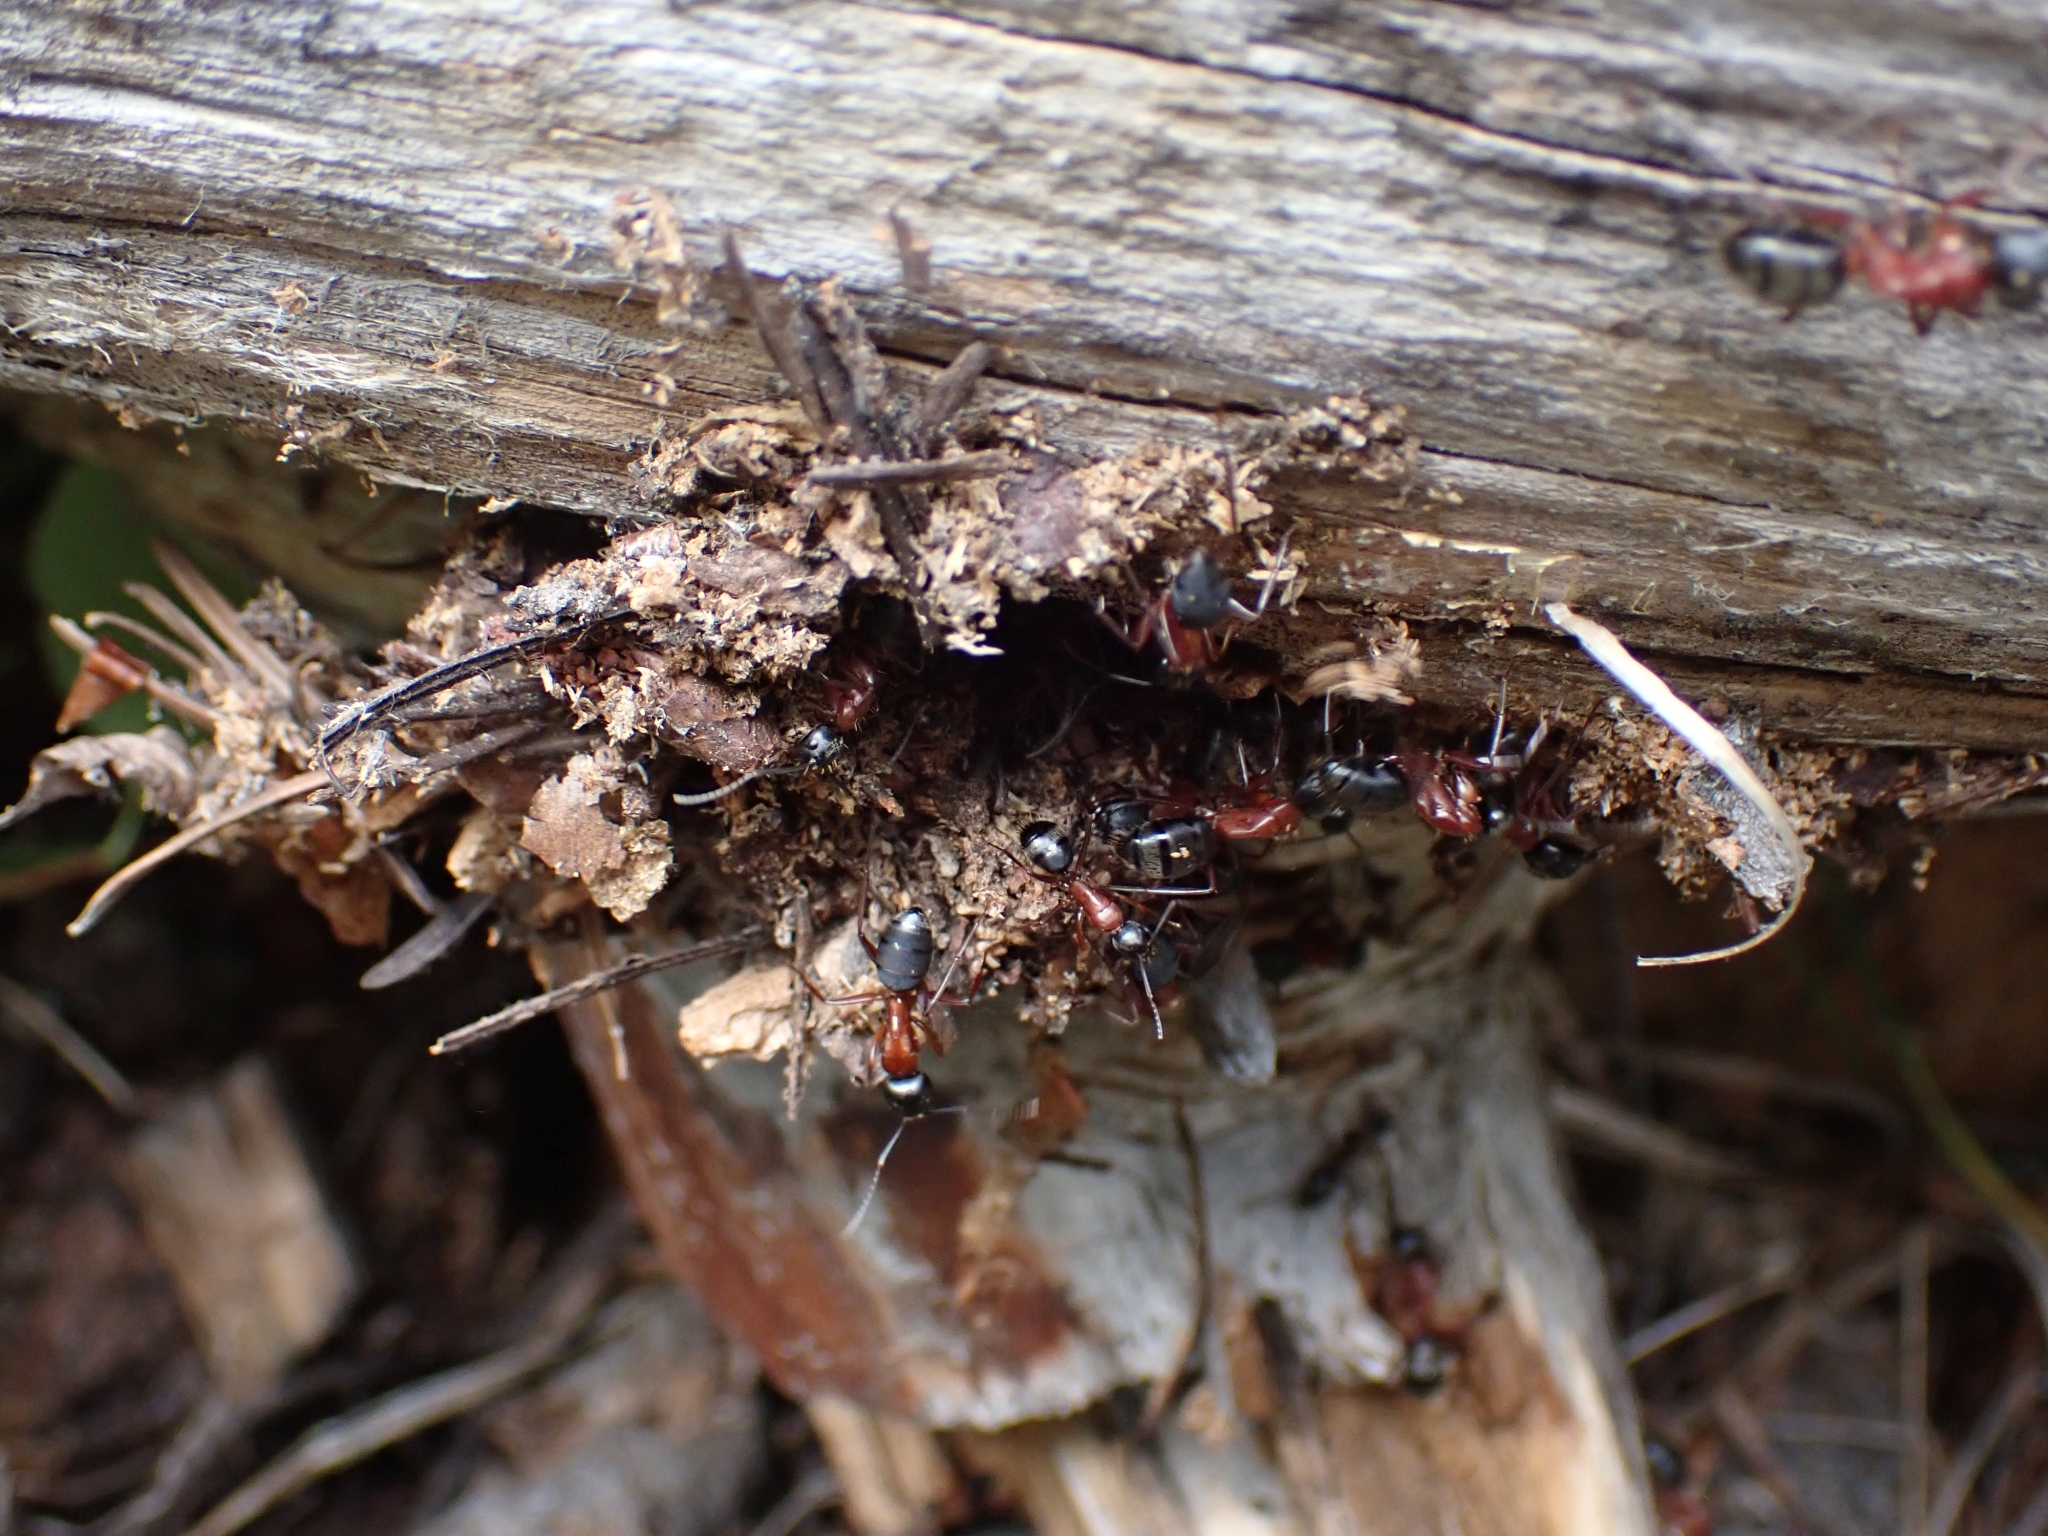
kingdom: Animalia
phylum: Arthropoda
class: Insecta
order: Hymenoptera
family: Formicidae
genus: Camponotus
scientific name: Camponotus vicinus
